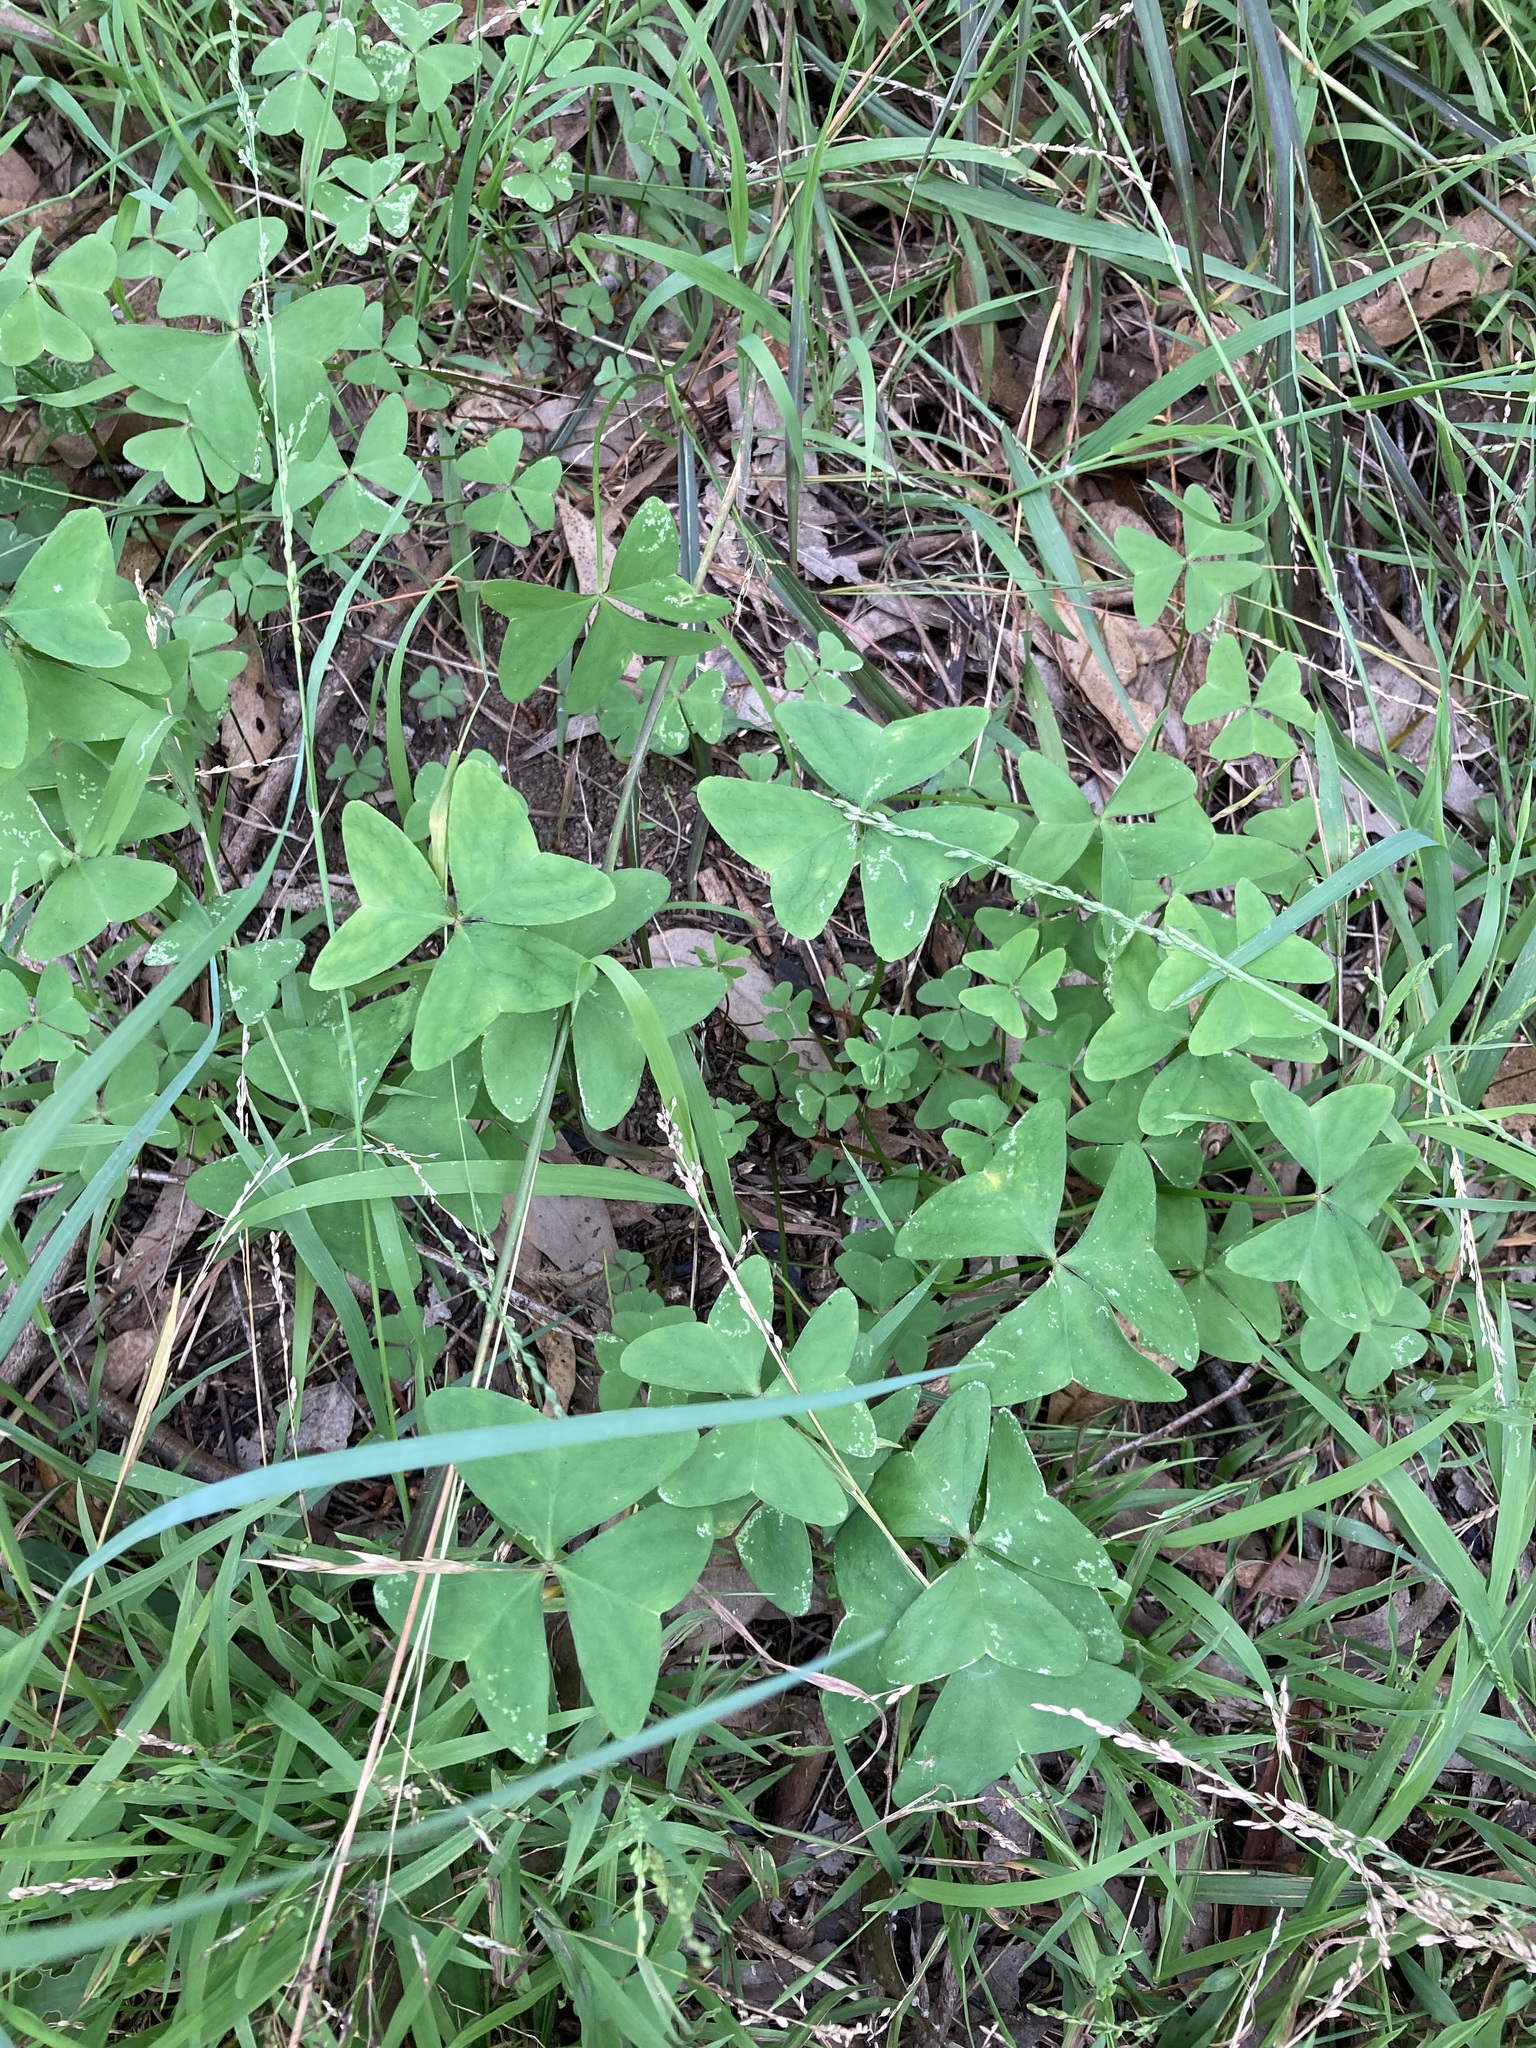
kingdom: Plantae
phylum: Tracheophyta
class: Magnoliopsida
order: Oxalidales
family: Oxalidaceae
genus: Oxalis
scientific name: Oxalis latifolia
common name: Garden pink-sorrel
